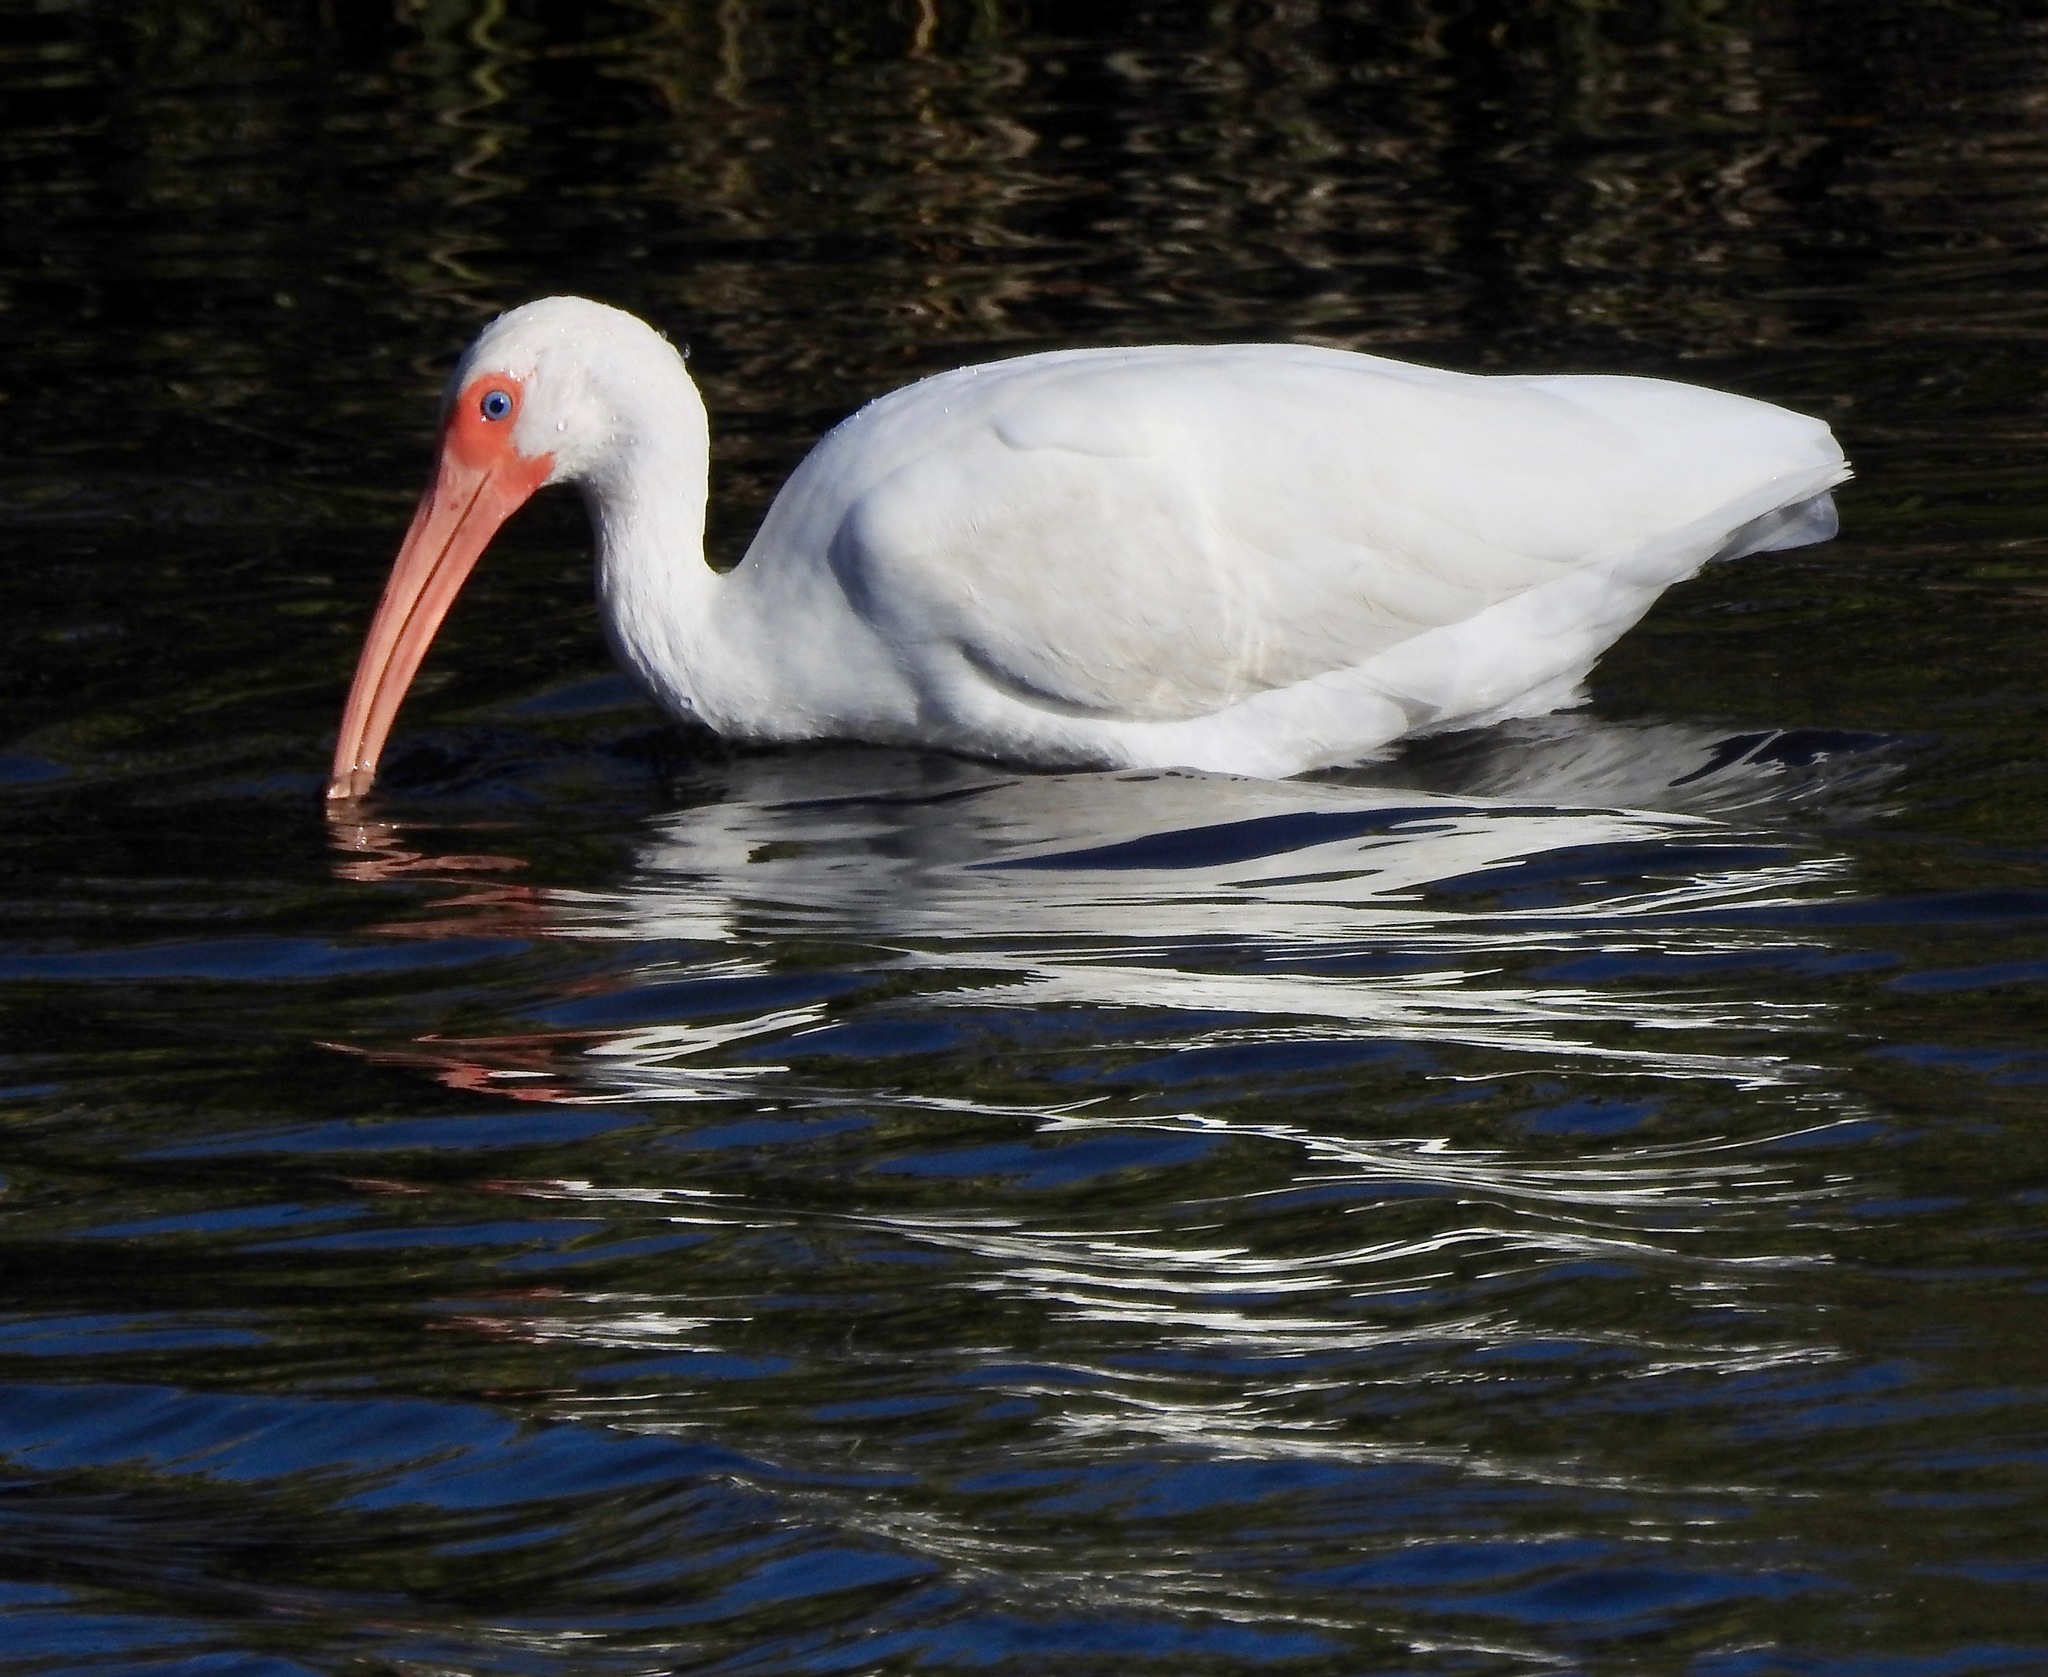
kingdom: Animalia
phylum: Chordata
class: Aves
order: Pelecaniformes
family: Threskiornithidae
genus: Eudocimus
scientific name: Eudocimus albus
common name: White ibis
